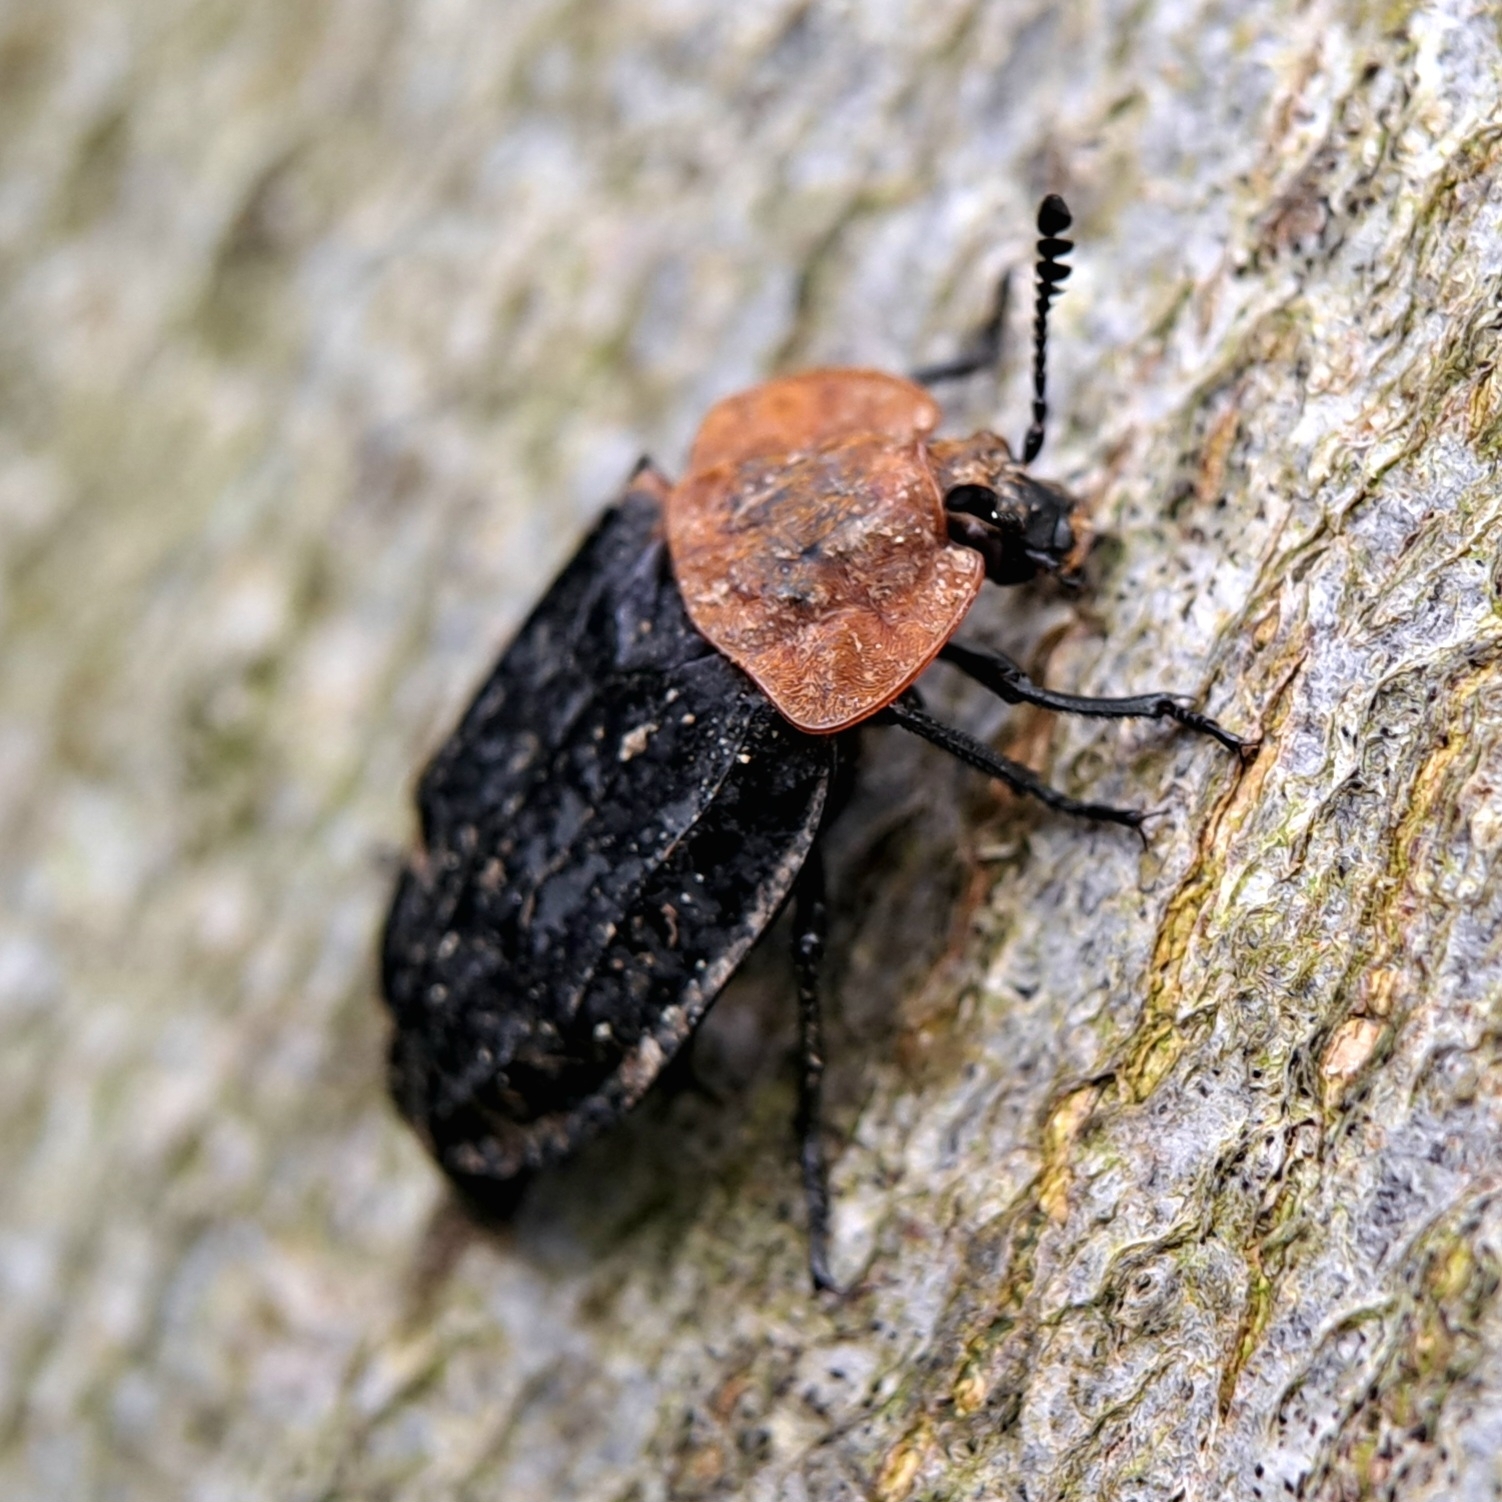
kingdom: Animalia
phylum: Arthropoda
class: Insecta
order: Coleoptera
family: Staphylinidae
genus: Oiceoptoma
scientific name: Oiceoptoma thoracicum
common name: Red-breasted carrion beetle
